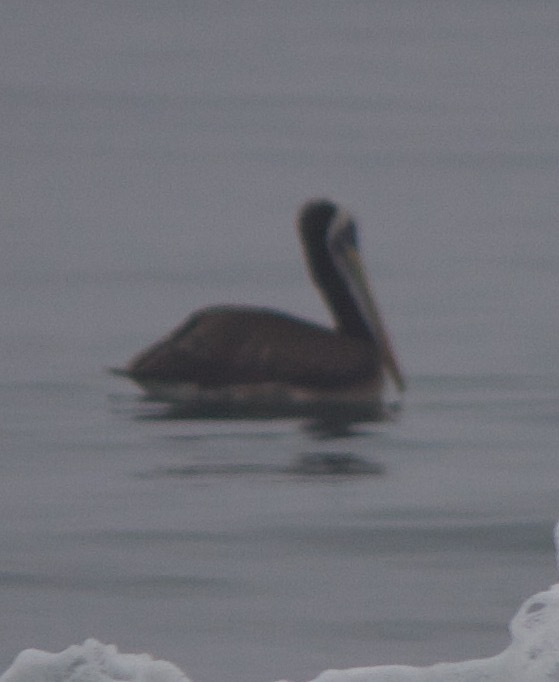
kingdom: Animalia
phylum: Chordata
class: Aves
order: Pelecaniformes
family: Pelecanidae
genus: Pelecanus
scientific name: Pelecanus thagus
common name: Peruvian pelican
